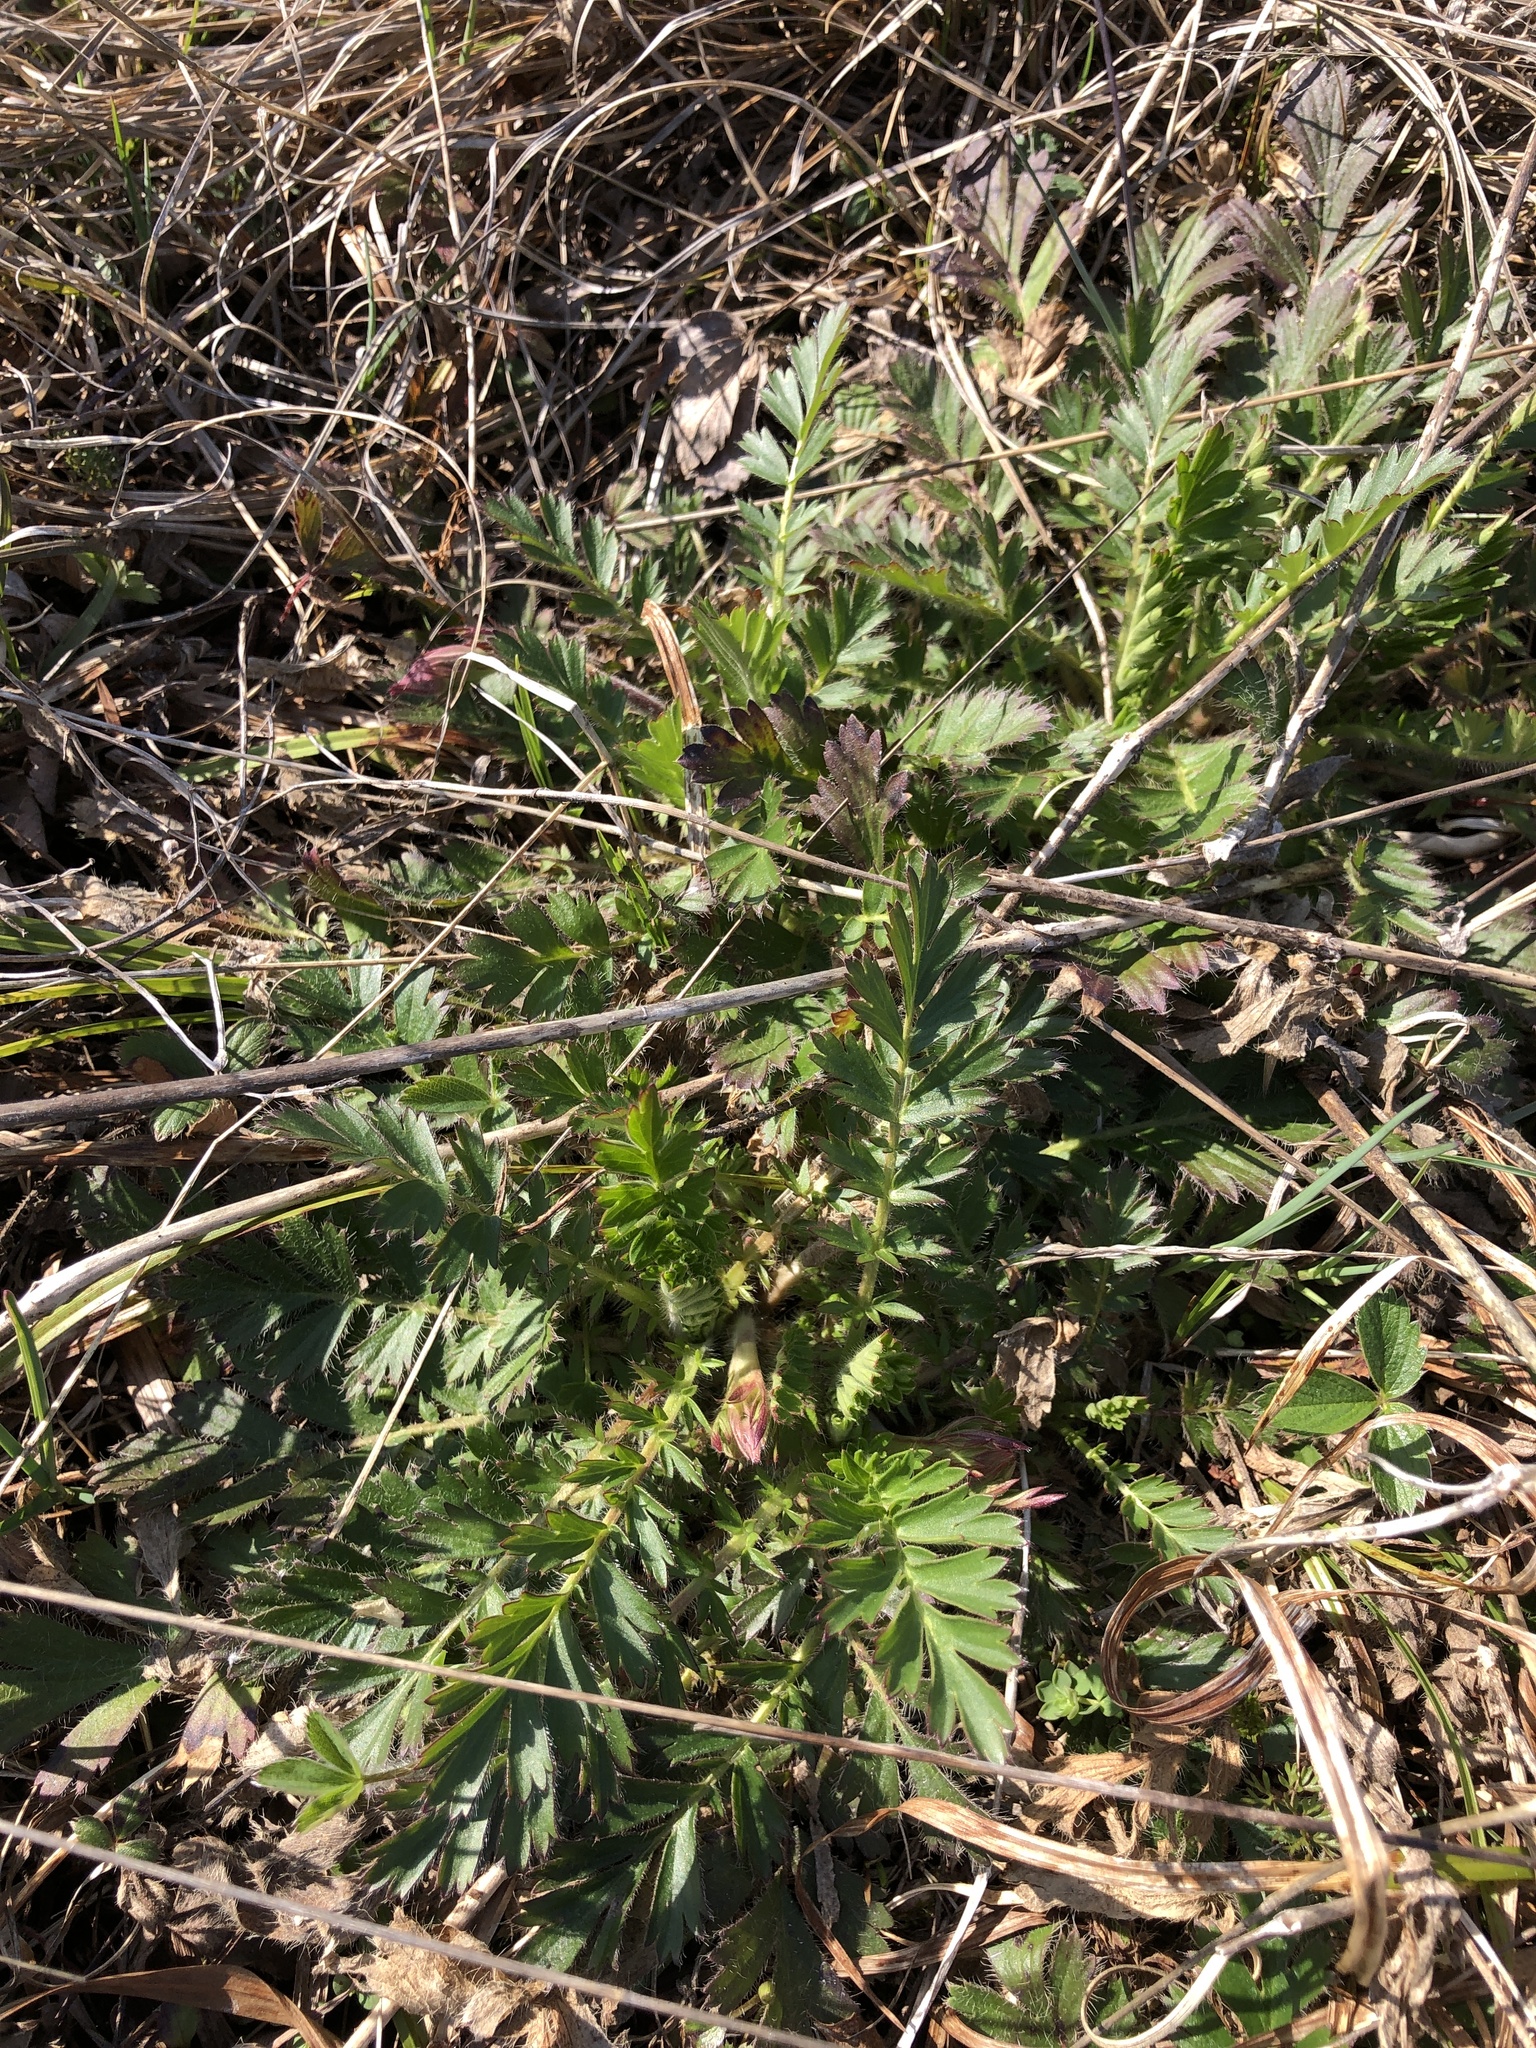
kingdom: Plantae
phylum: Tracheophyta
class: Magnoliopsida
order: Rosales
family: Rosaceae
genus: Geum
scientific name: Geum triflorum
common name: Old man's whiskers
